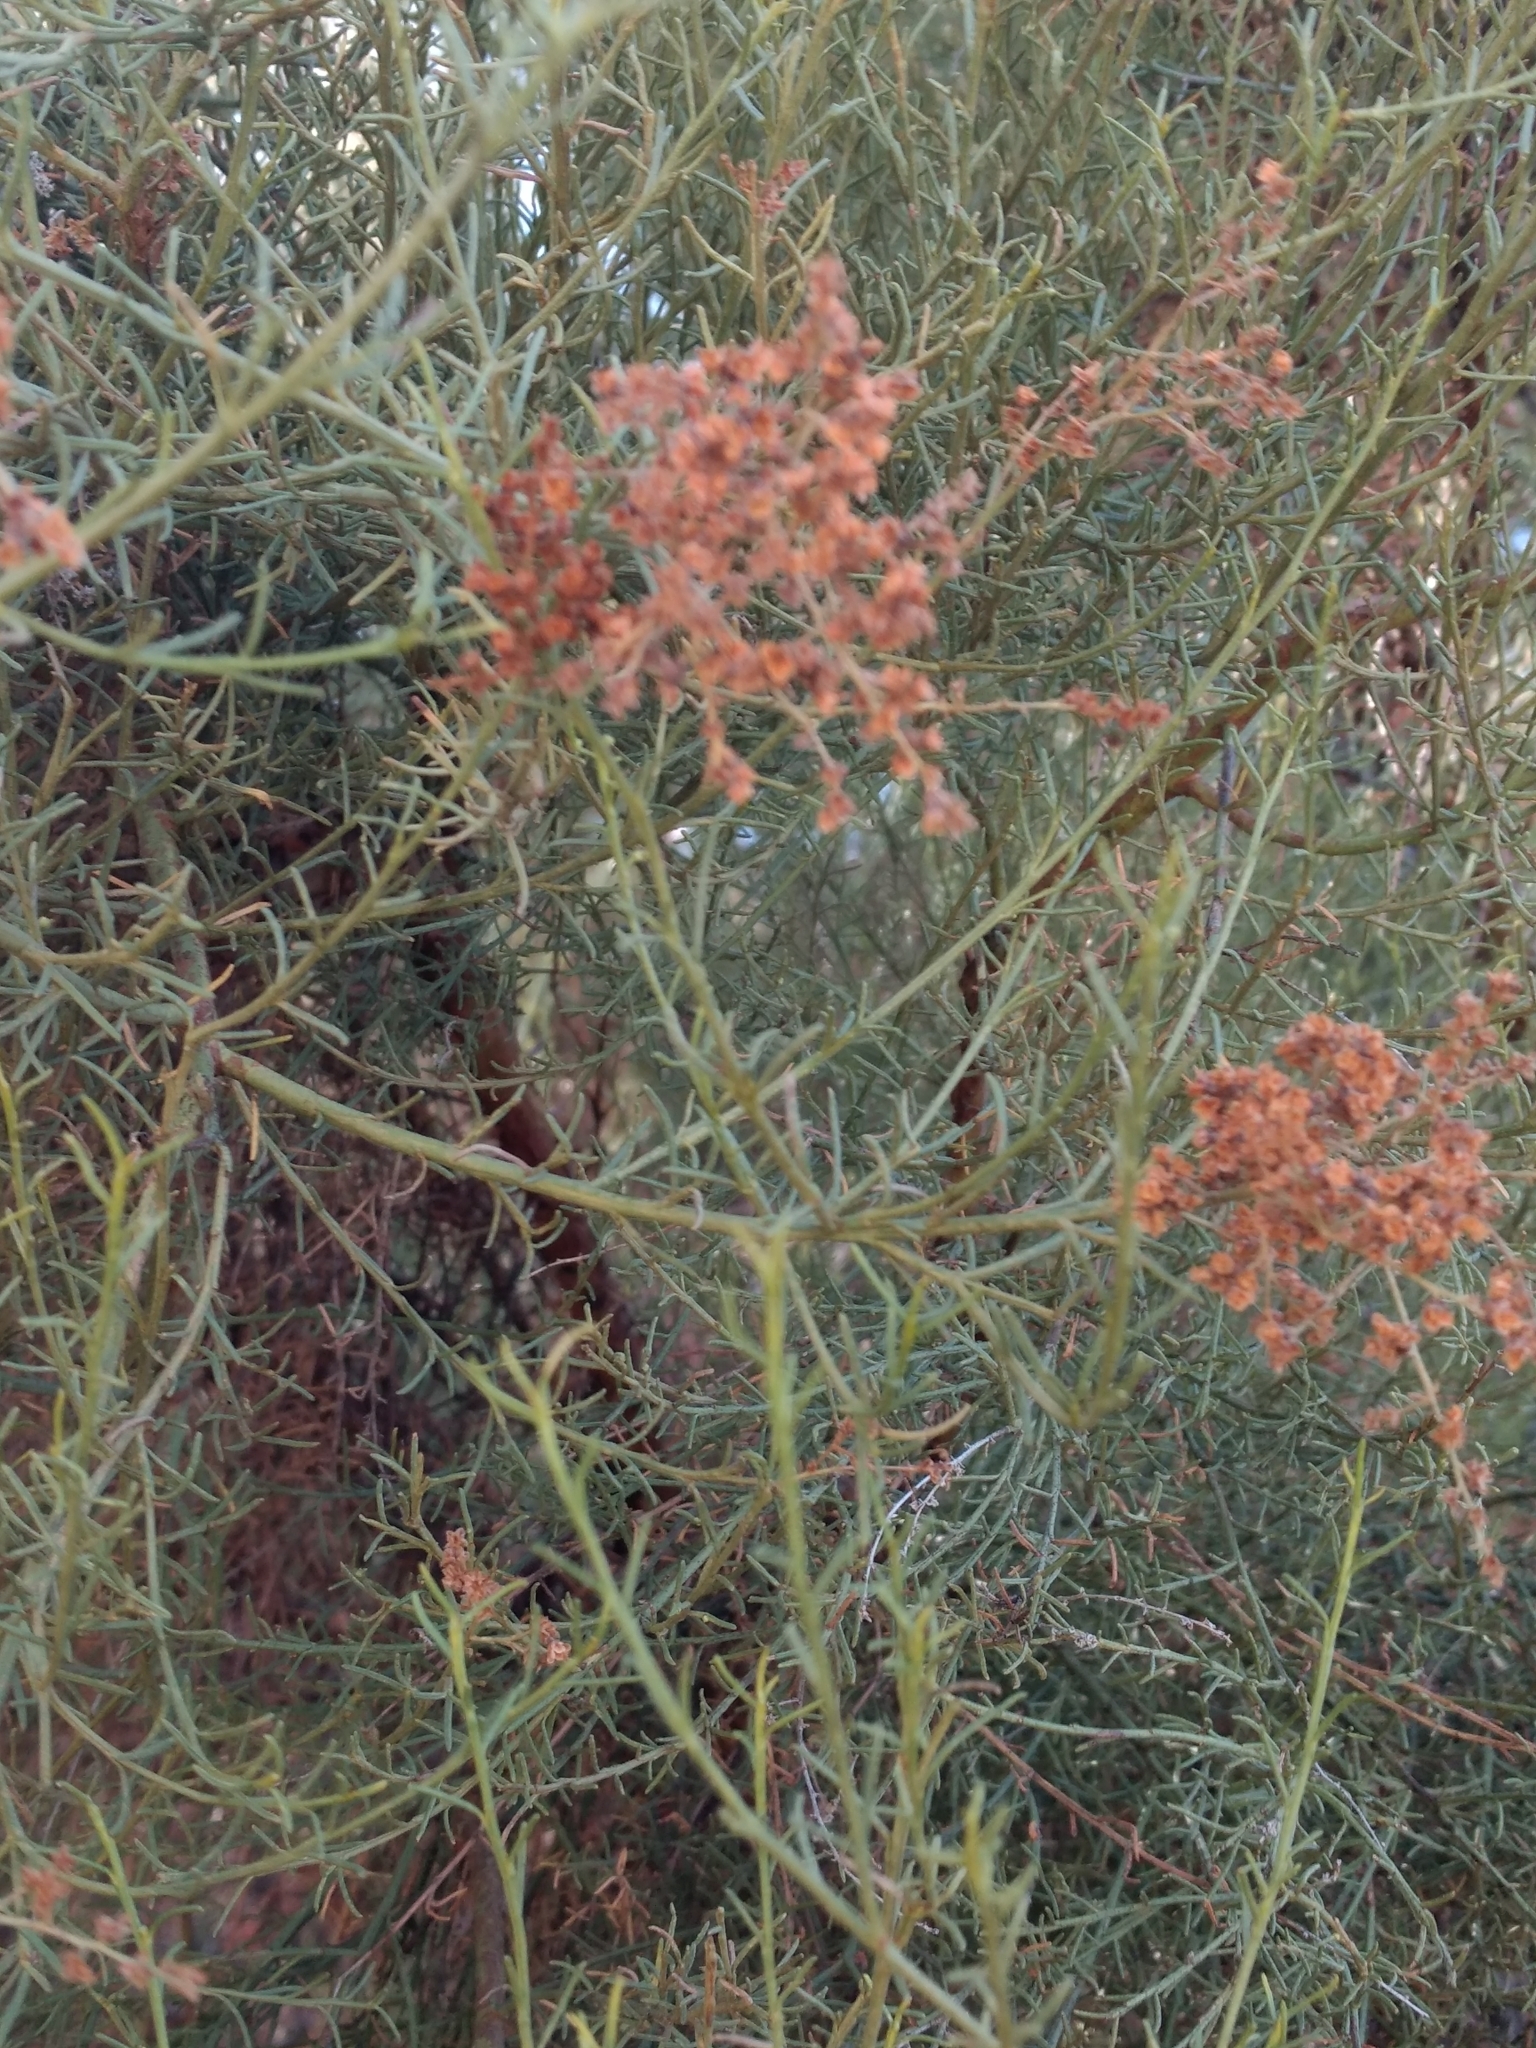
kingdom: Plantae
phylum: Tracheophyta
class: Magnoliopsida
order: Rosales
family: Rosaceae
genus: Adenostoma
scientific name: Adenostoma sparsifolium
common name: Red shank
